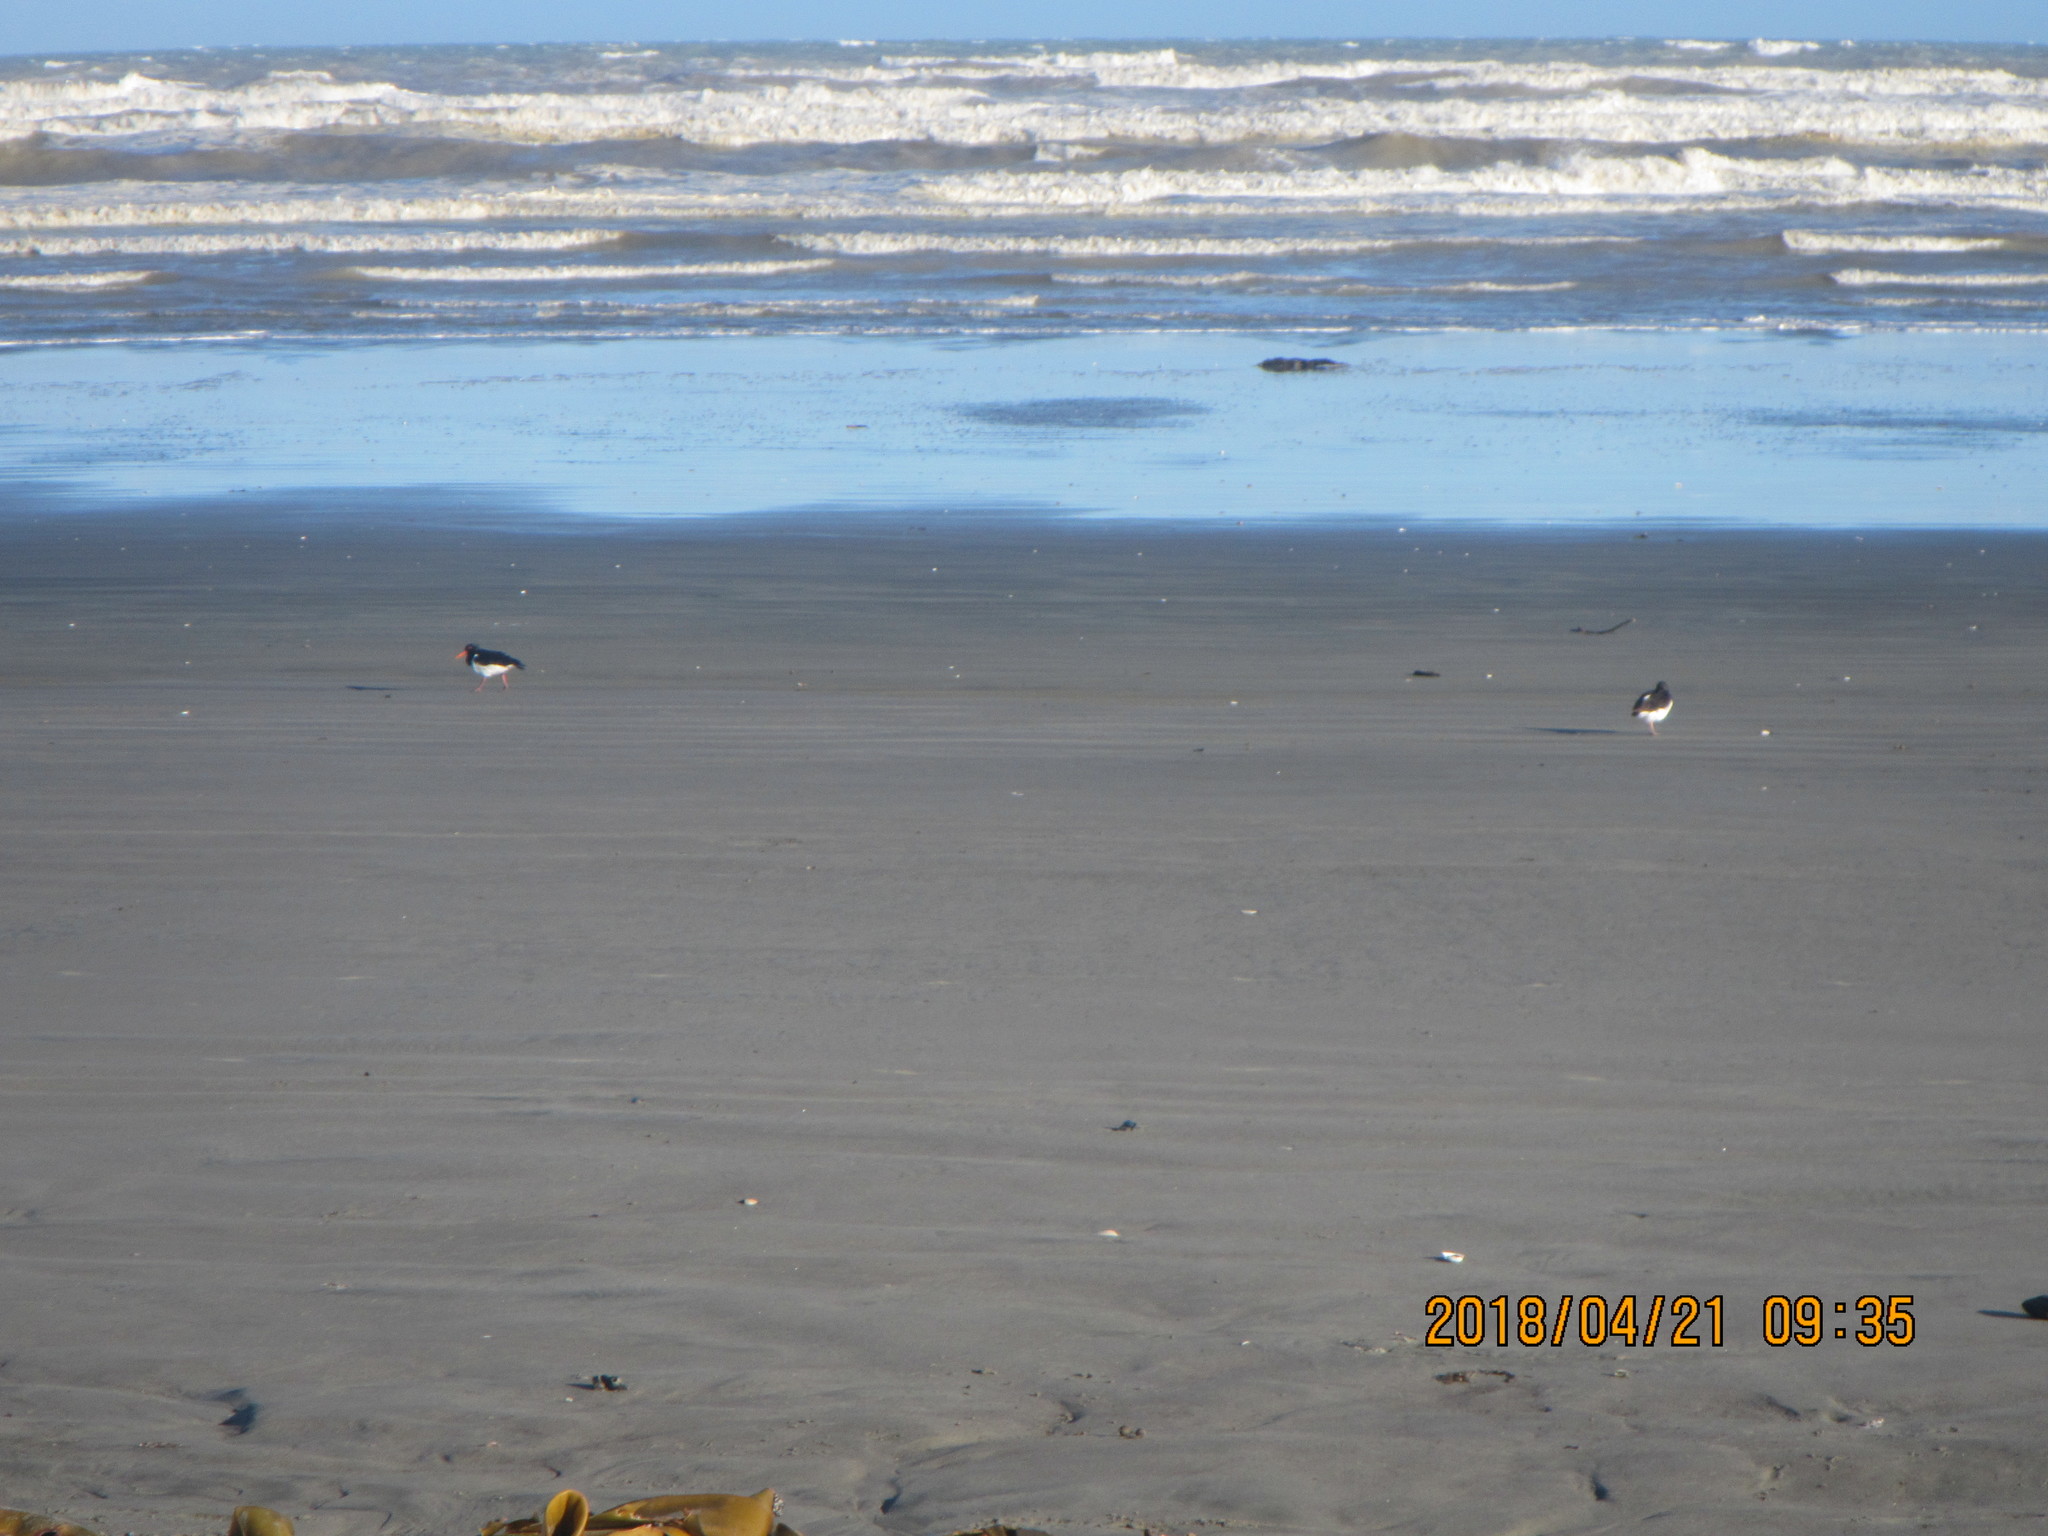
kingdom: Animalia
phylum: Chordata
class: Aves
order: Charadriiformes
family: Haematopodidae
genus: Haematopus
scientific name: Haematopus finschi
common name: South island oystercatcher
